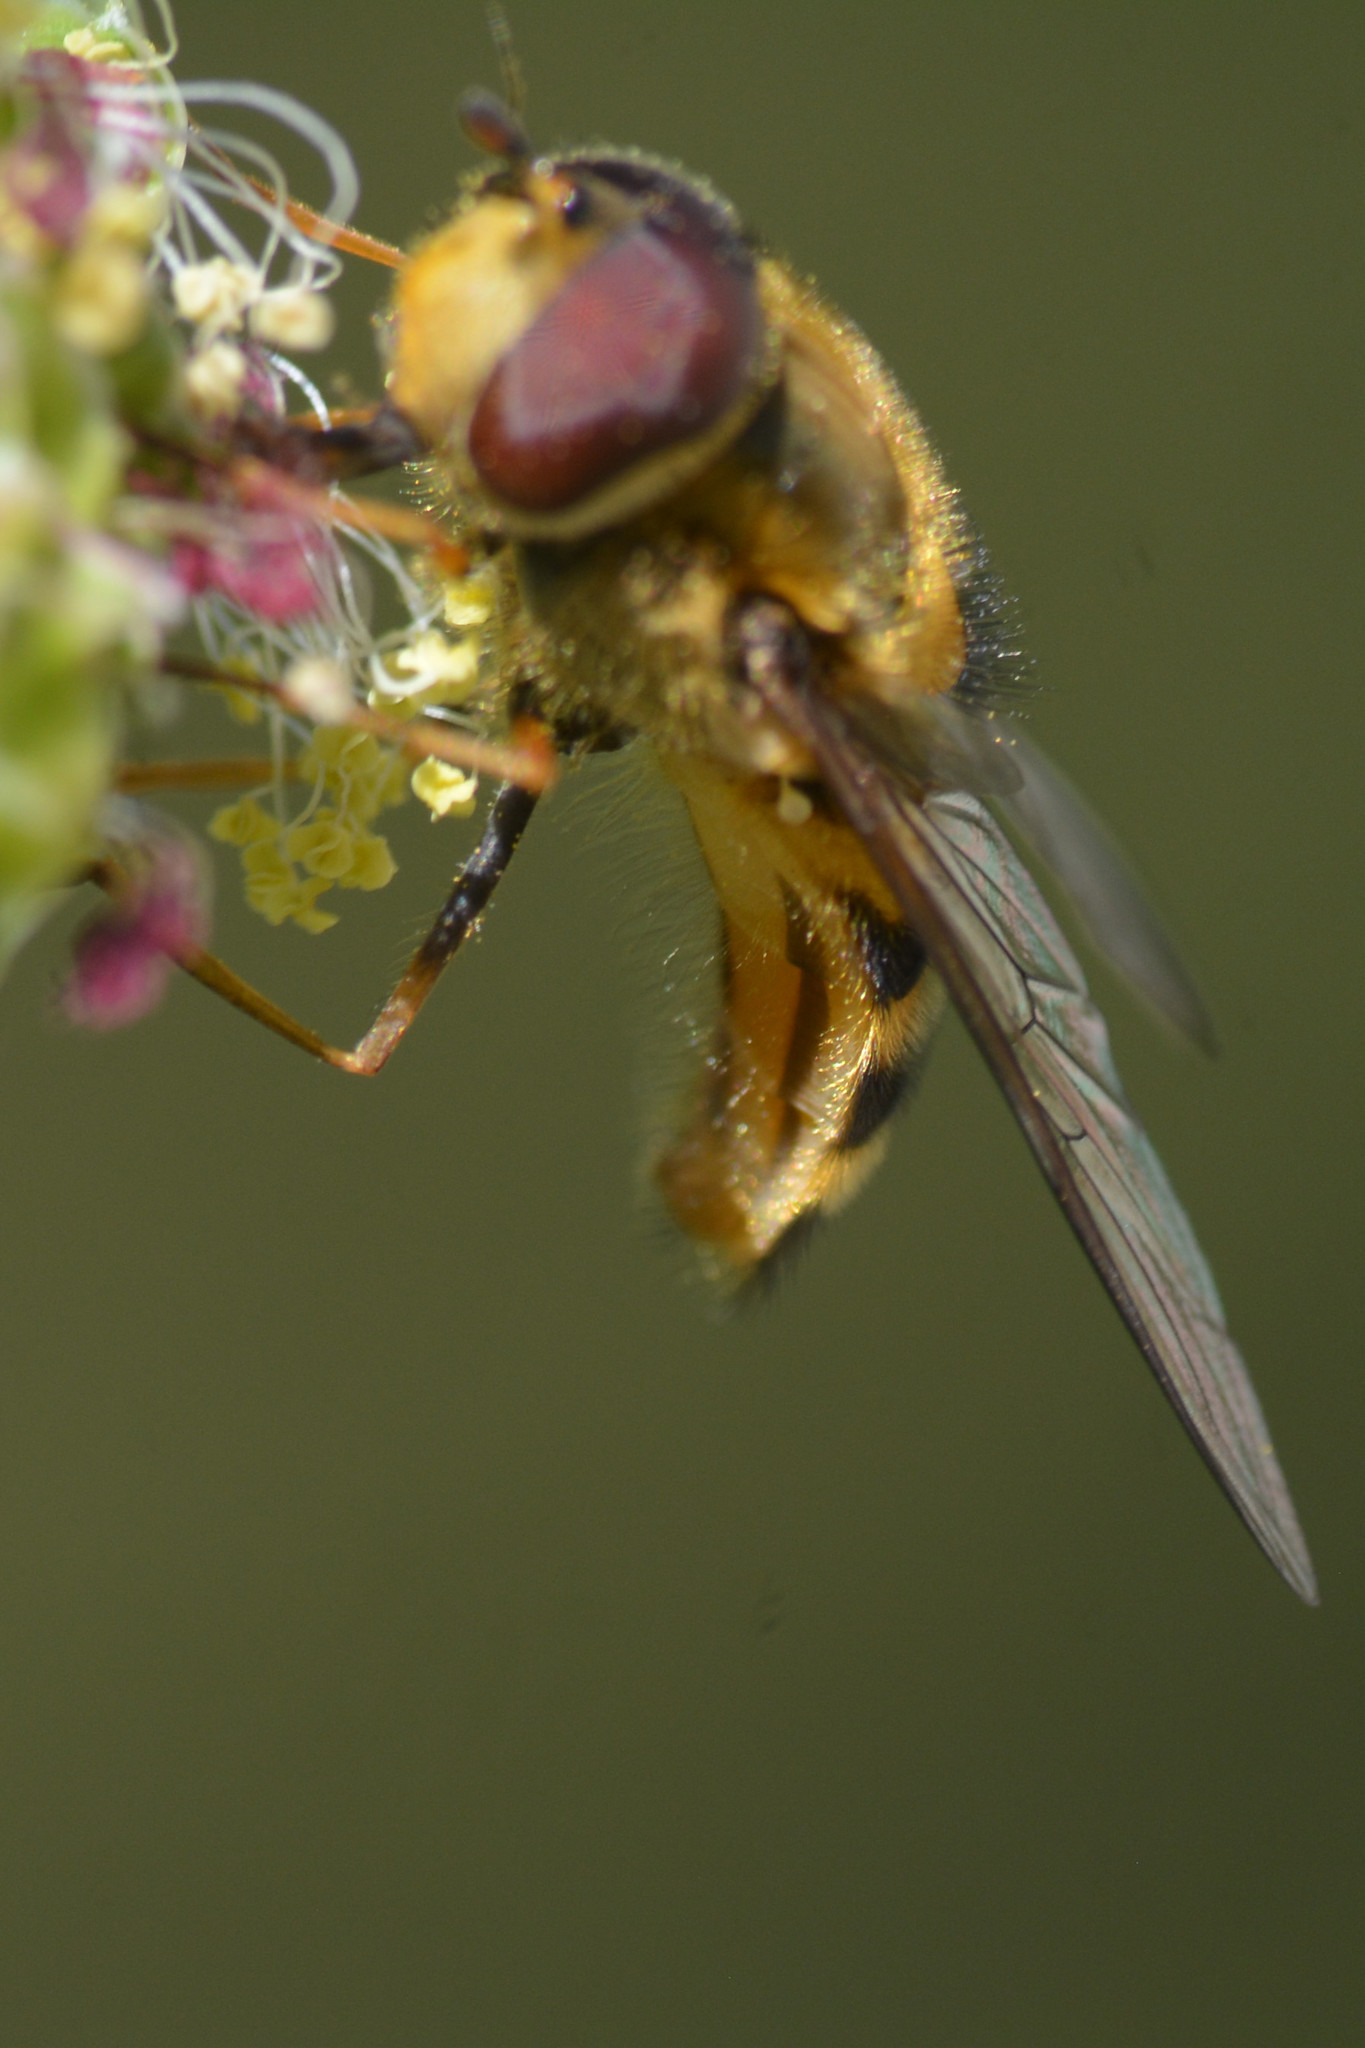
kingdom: Animalia
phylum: Arthropoda
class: Insecta
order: Diptera
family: Syrphidae
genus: Syrphus
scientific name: Syrphus torvus
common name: Hairy-eyed flower fly
